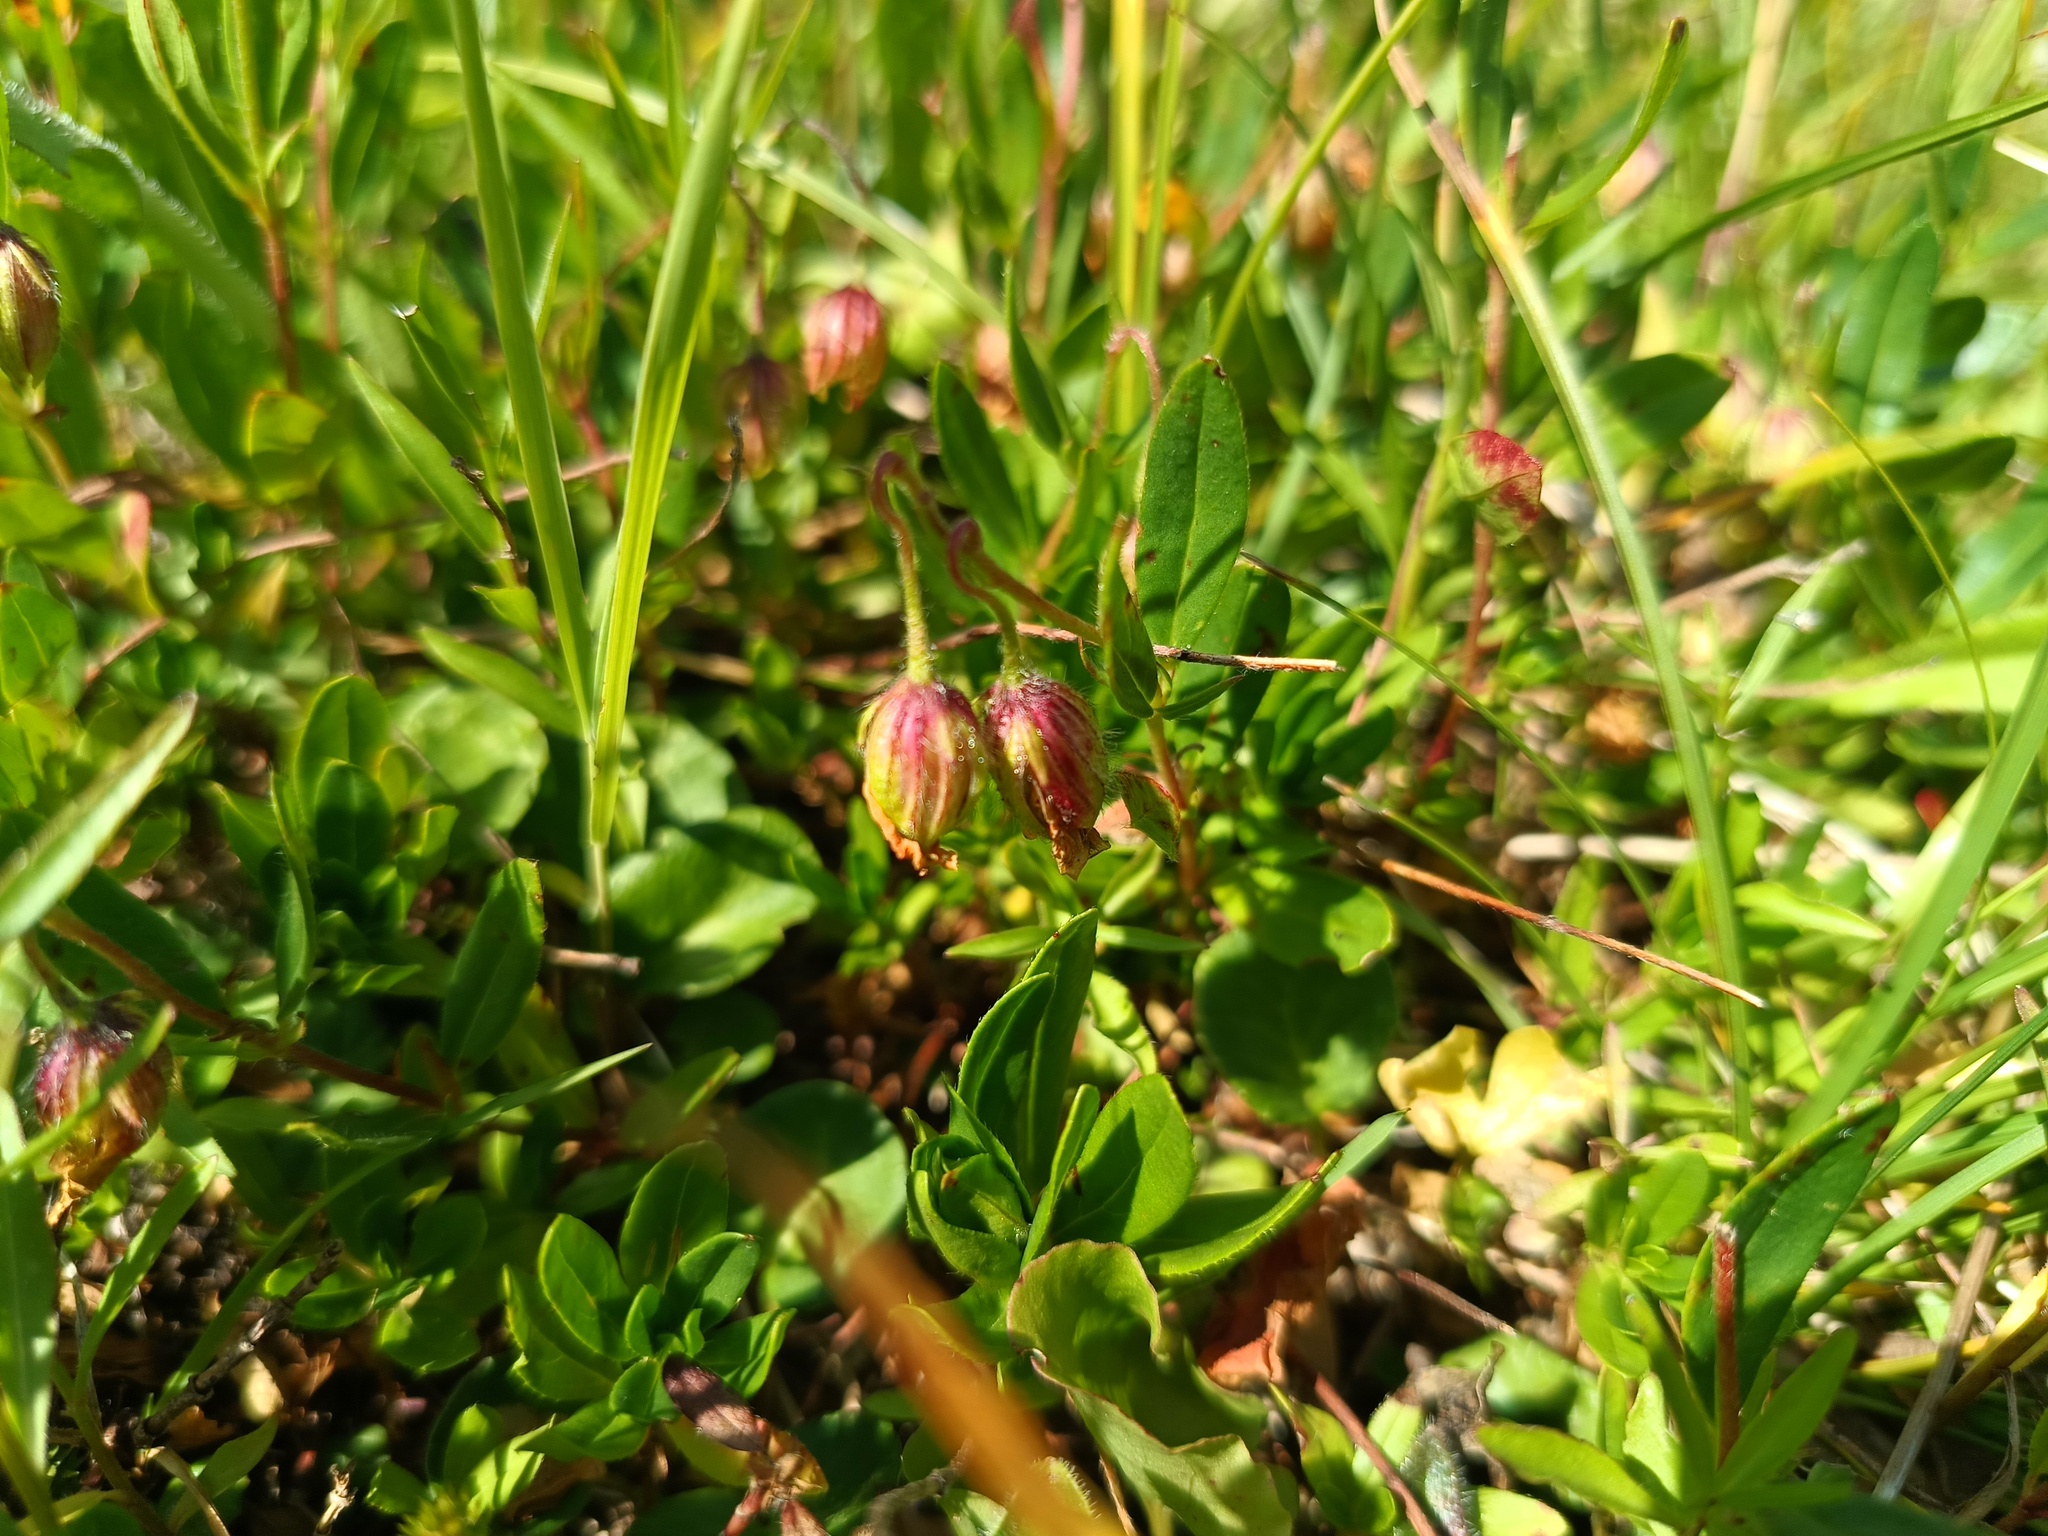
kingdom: Plantae
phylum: Tracheophyta
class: Magnoliopsida
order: Malvales
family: Cistaceae
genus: Helianthemum
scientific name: Helianthemum nummularium
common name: Common rock-rose
